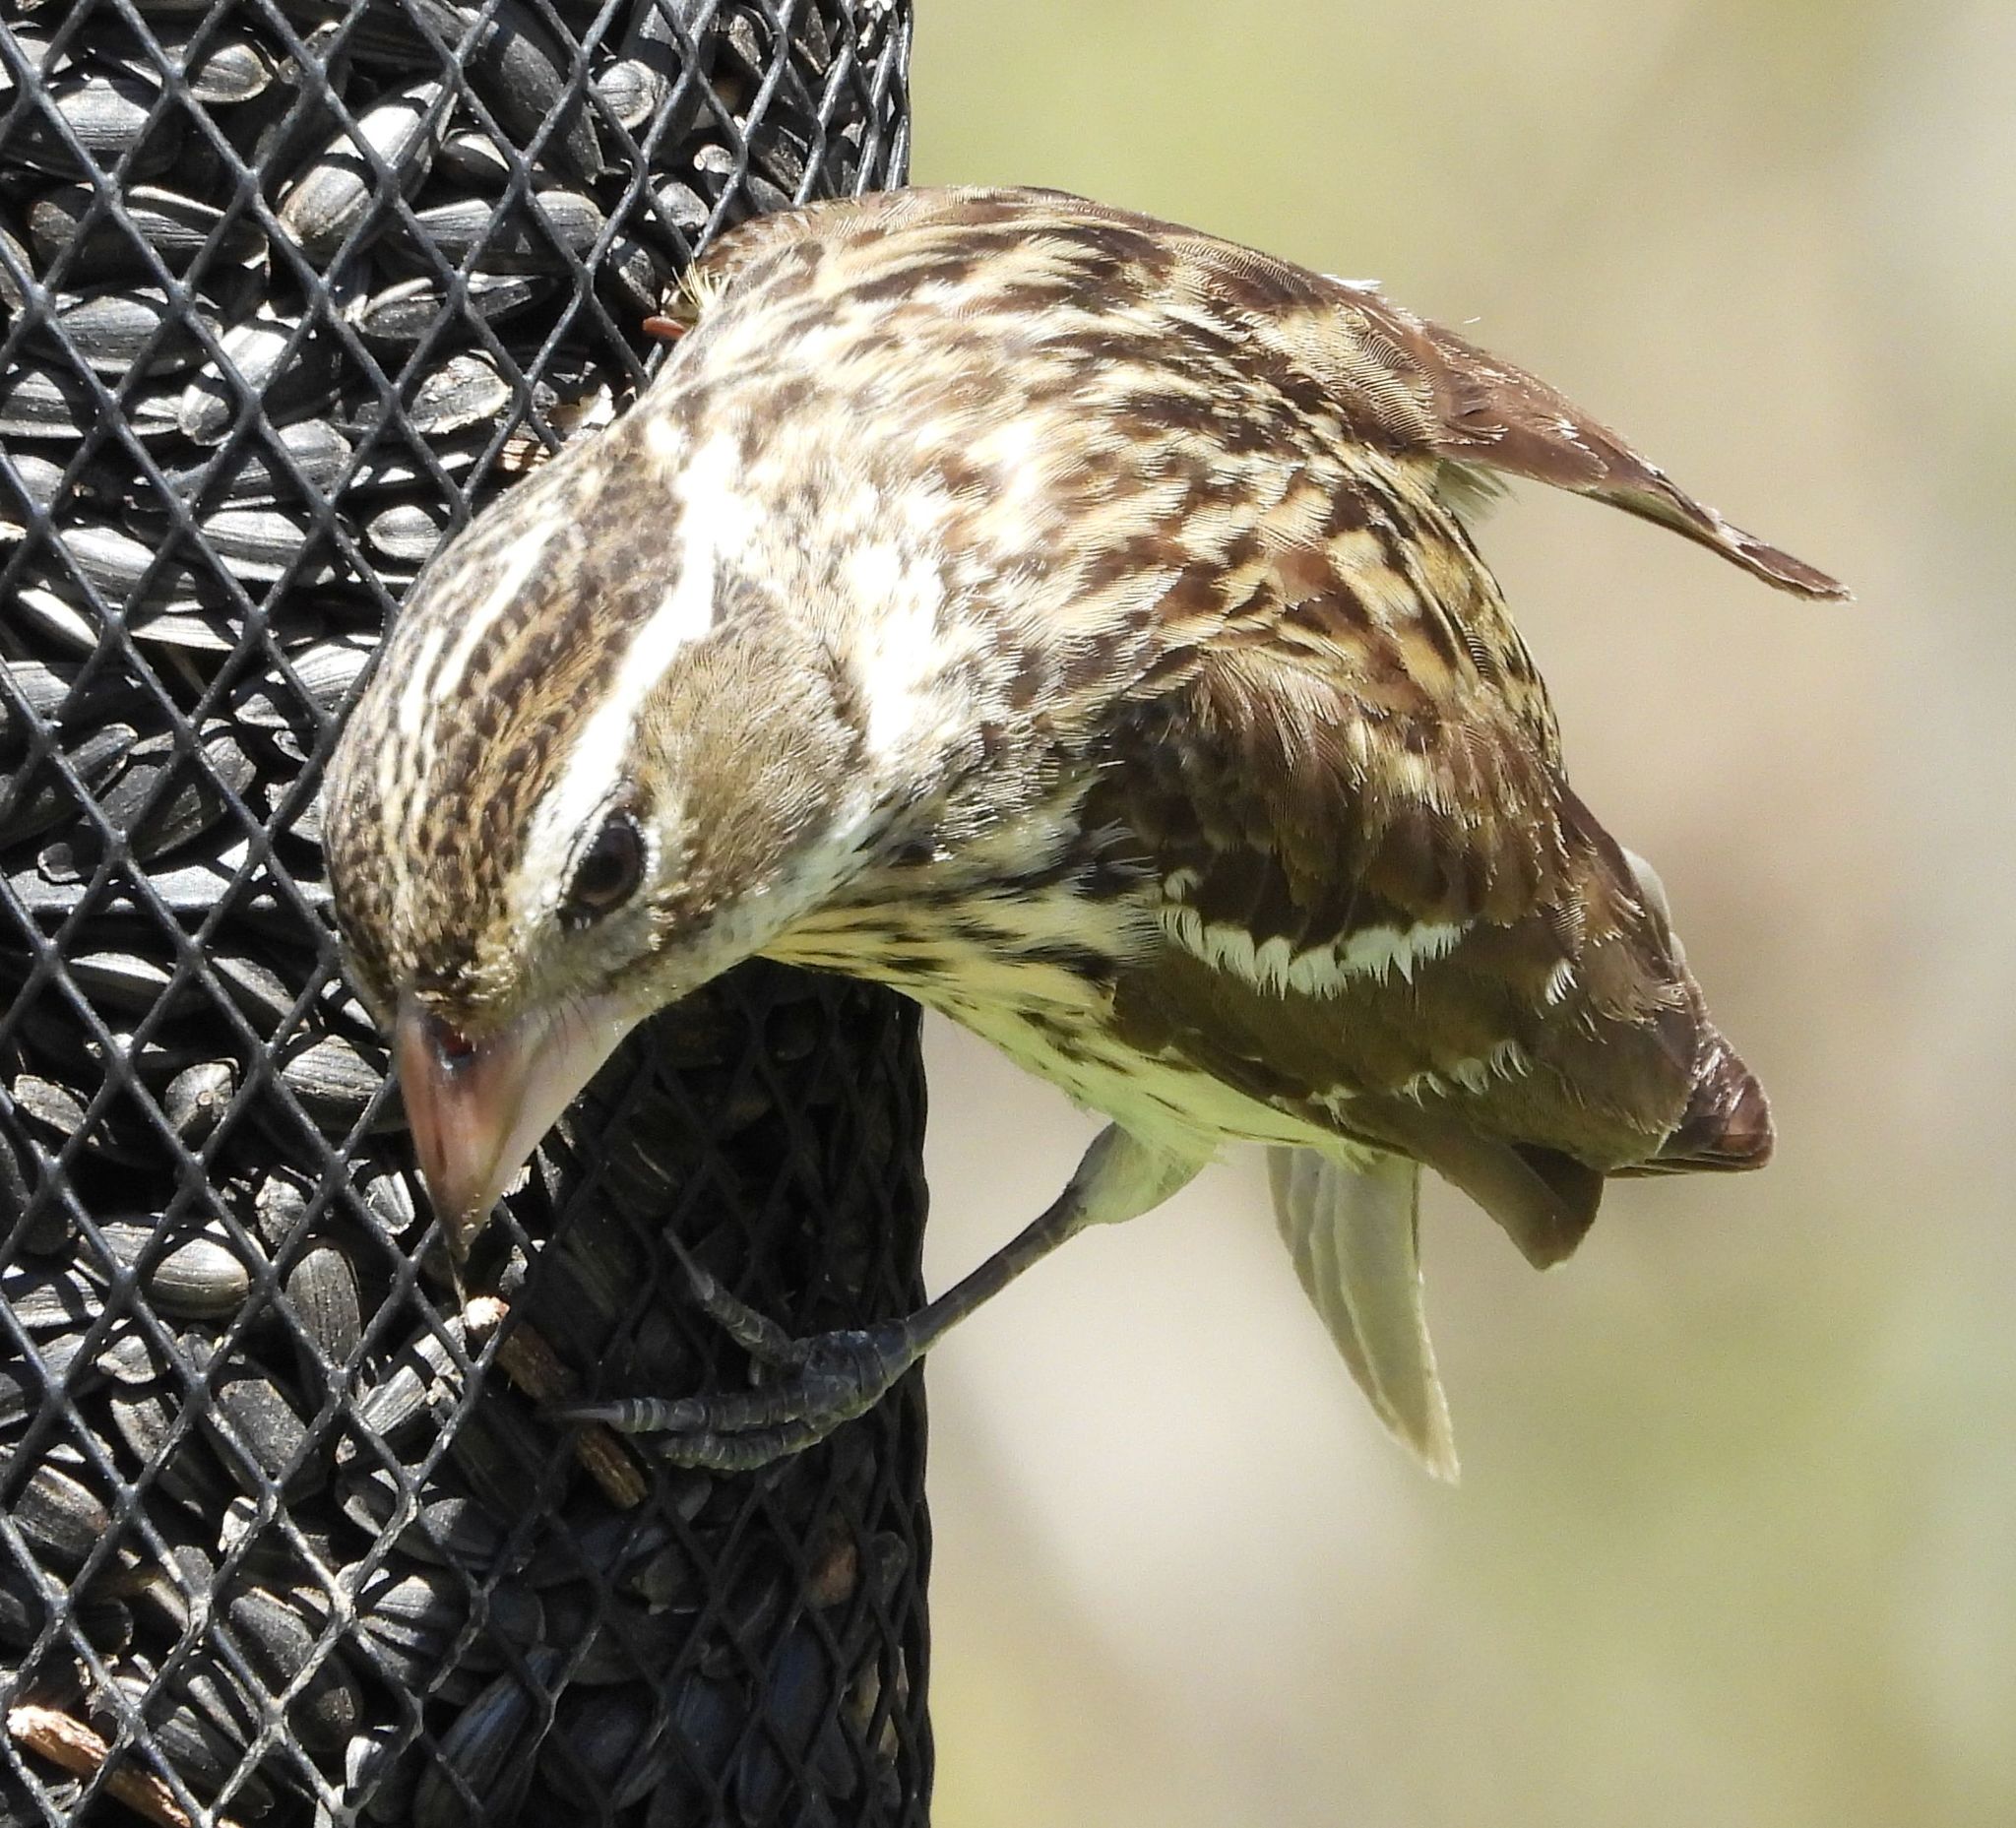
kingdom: Animalia
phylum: Chordata
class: Aves
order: Passeriformes
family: Cardinalidae
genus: Pheucticus
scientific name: Pheucticus ludovicianus
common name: Rose-breasted grosbeak
